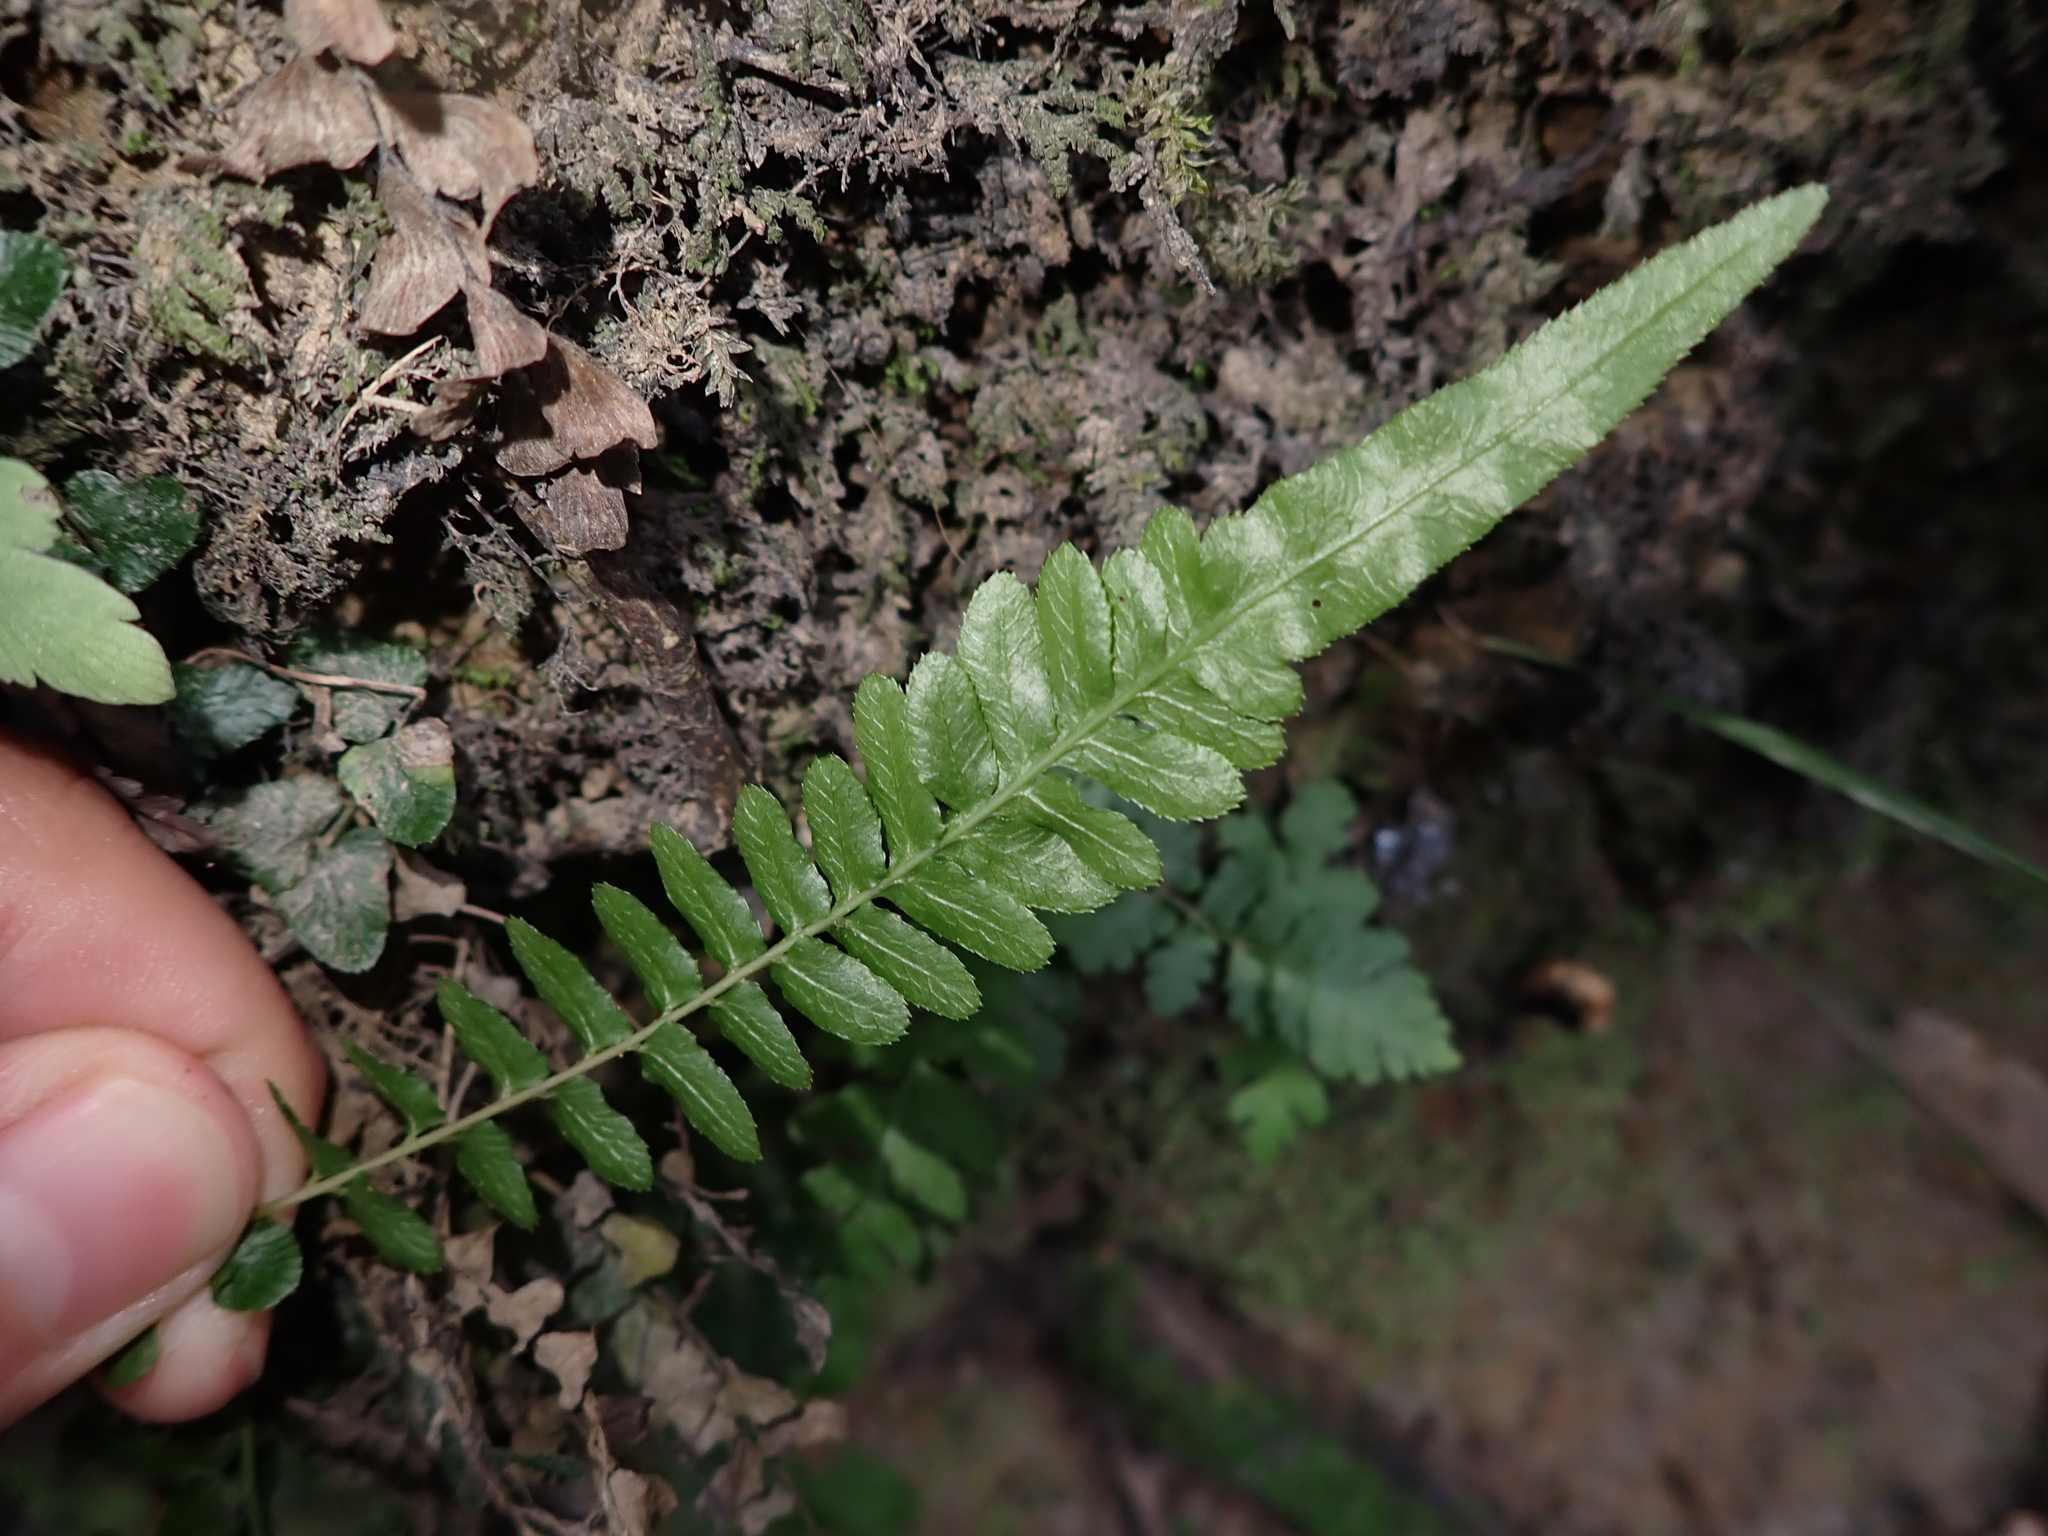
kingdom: Plantae
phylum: Tracheophyta
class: Polypodiopsida
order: Polypodiales
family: Blechnaceae
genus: Doodia
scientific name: Doodia australis
